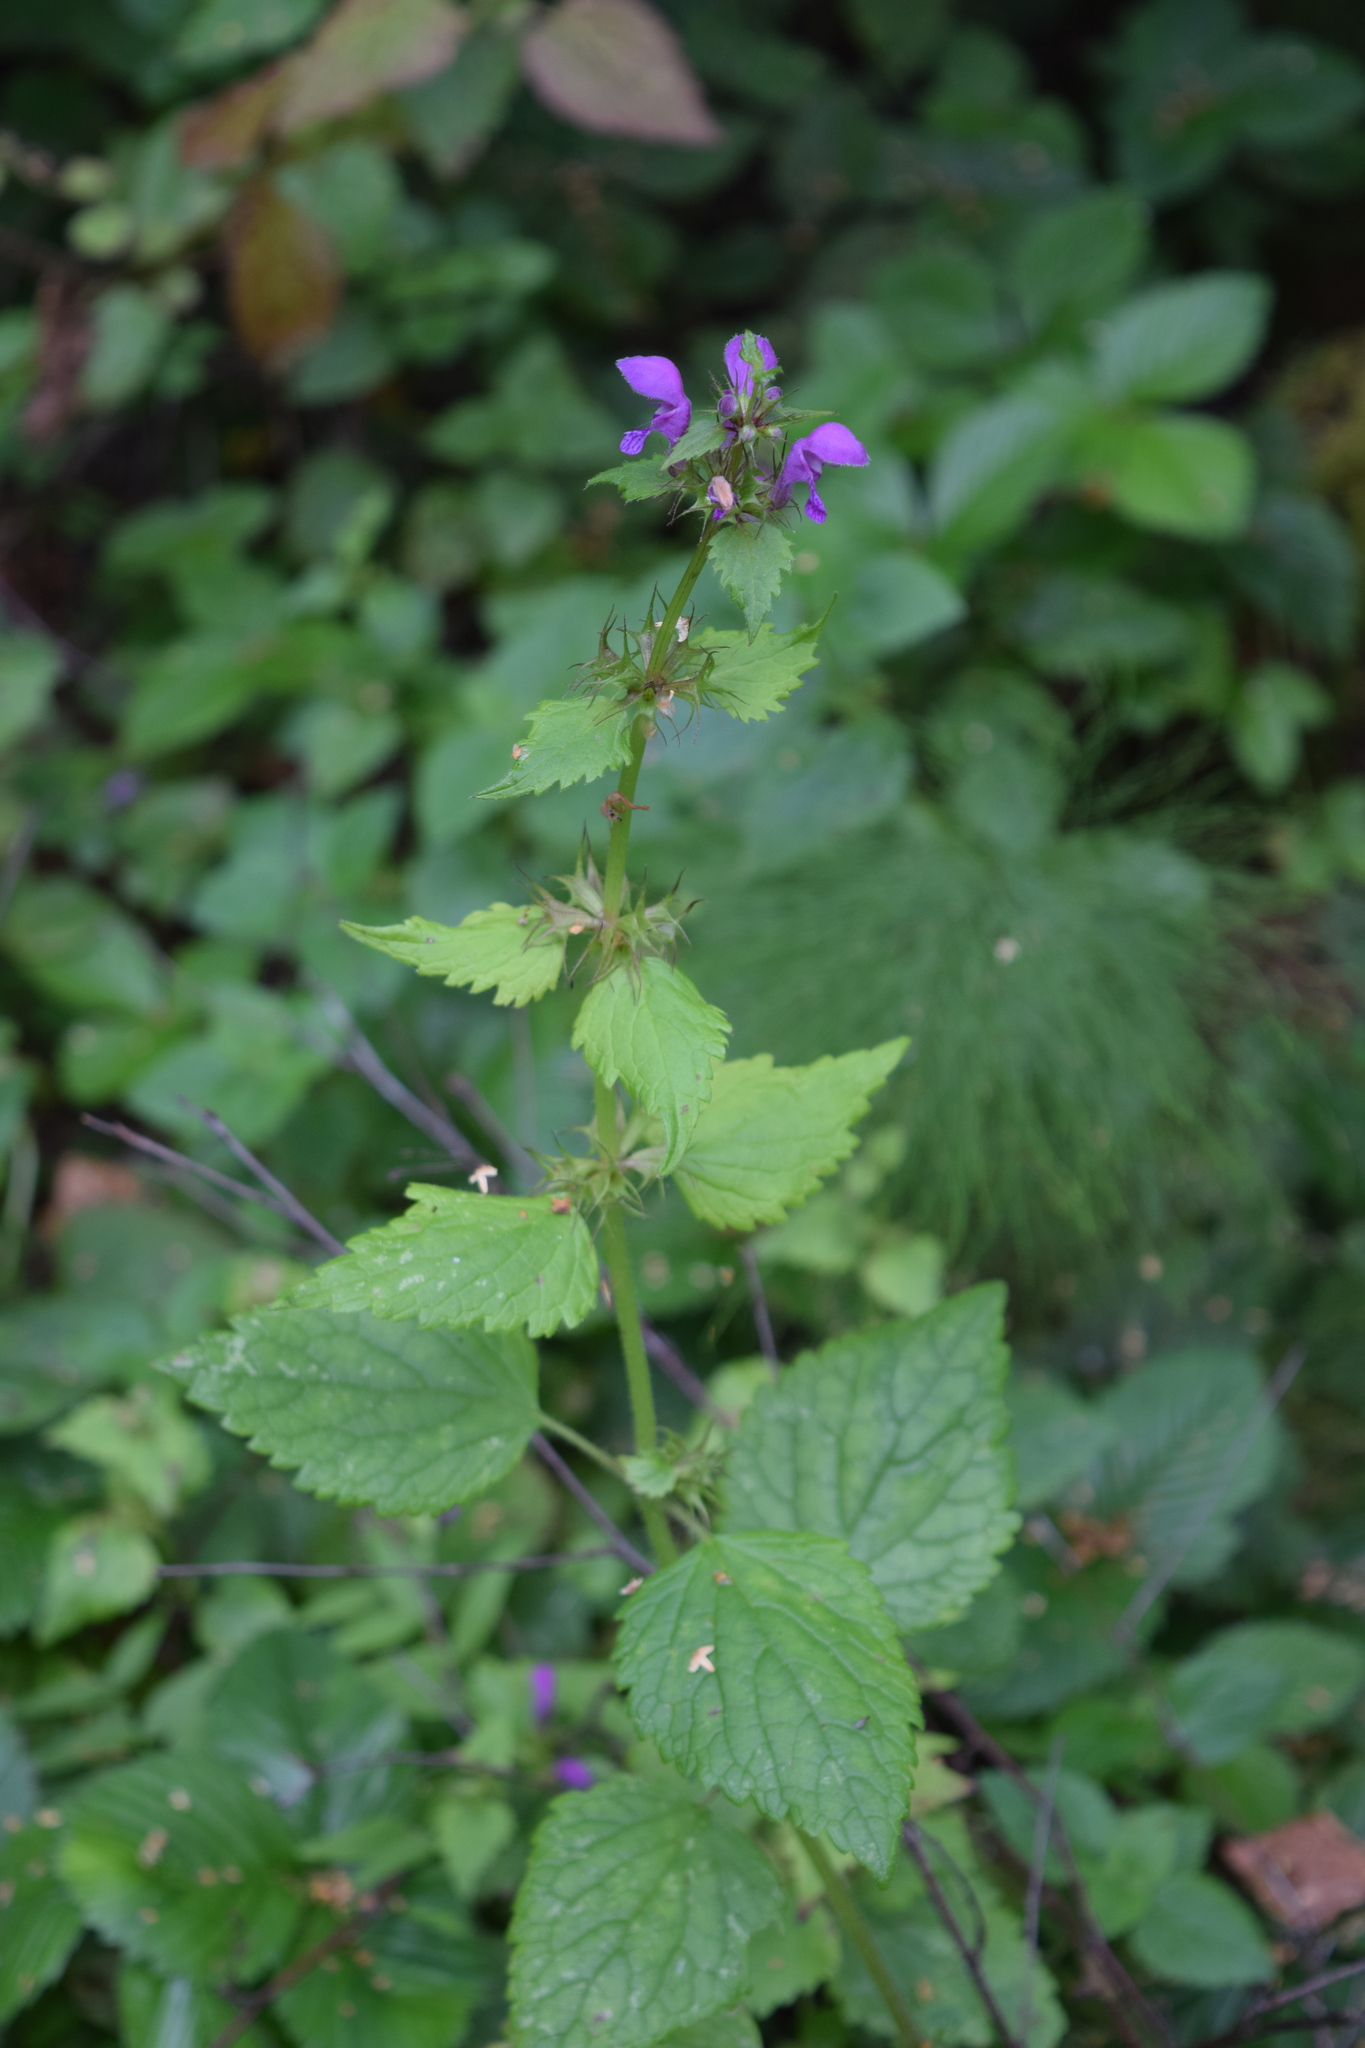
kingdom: Plantae
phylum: Tracheophyta
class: Magnoliopsida
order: Lamiales
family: Lamiaceae
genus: Lamium
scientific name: Lamium maculatum
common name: Spotted dead-nettle
